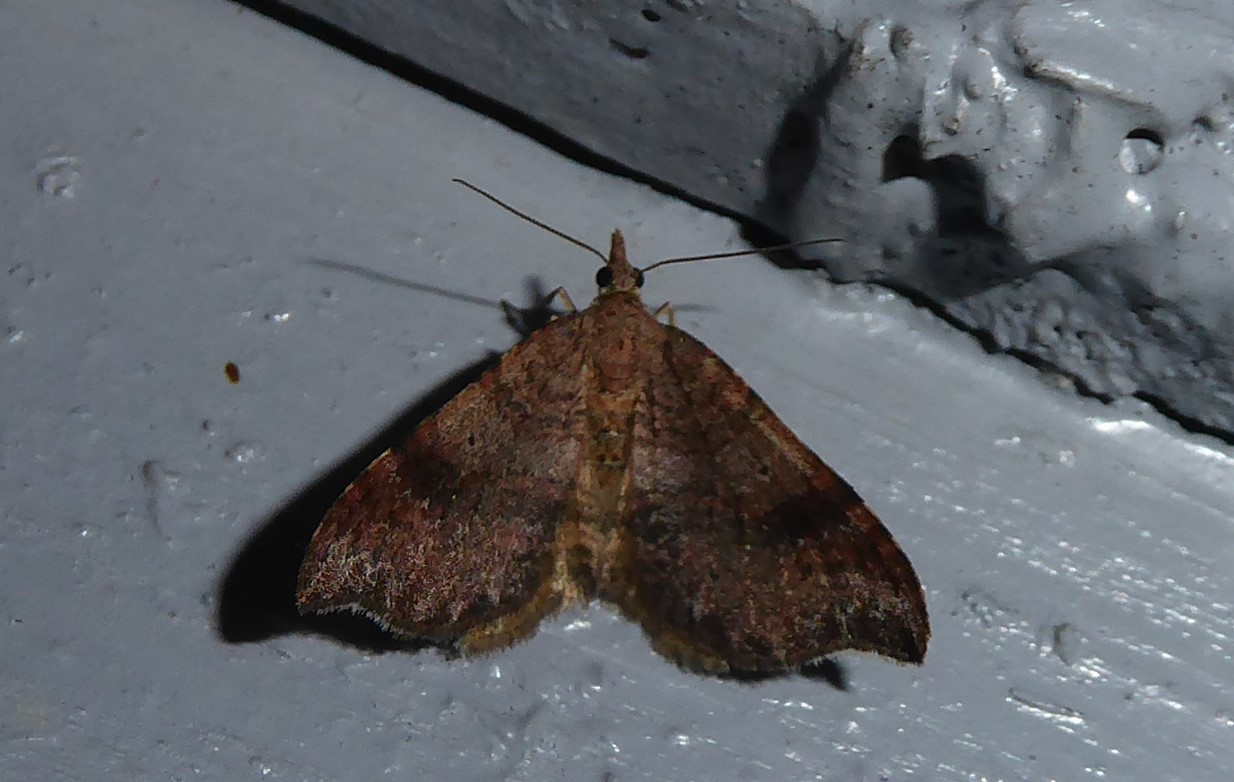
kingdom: Animalia
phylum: Arthropoda
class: Insecta
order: Lepidoptera
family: Geometridae
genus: Homodotis
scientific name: Homodotis megaspilata
